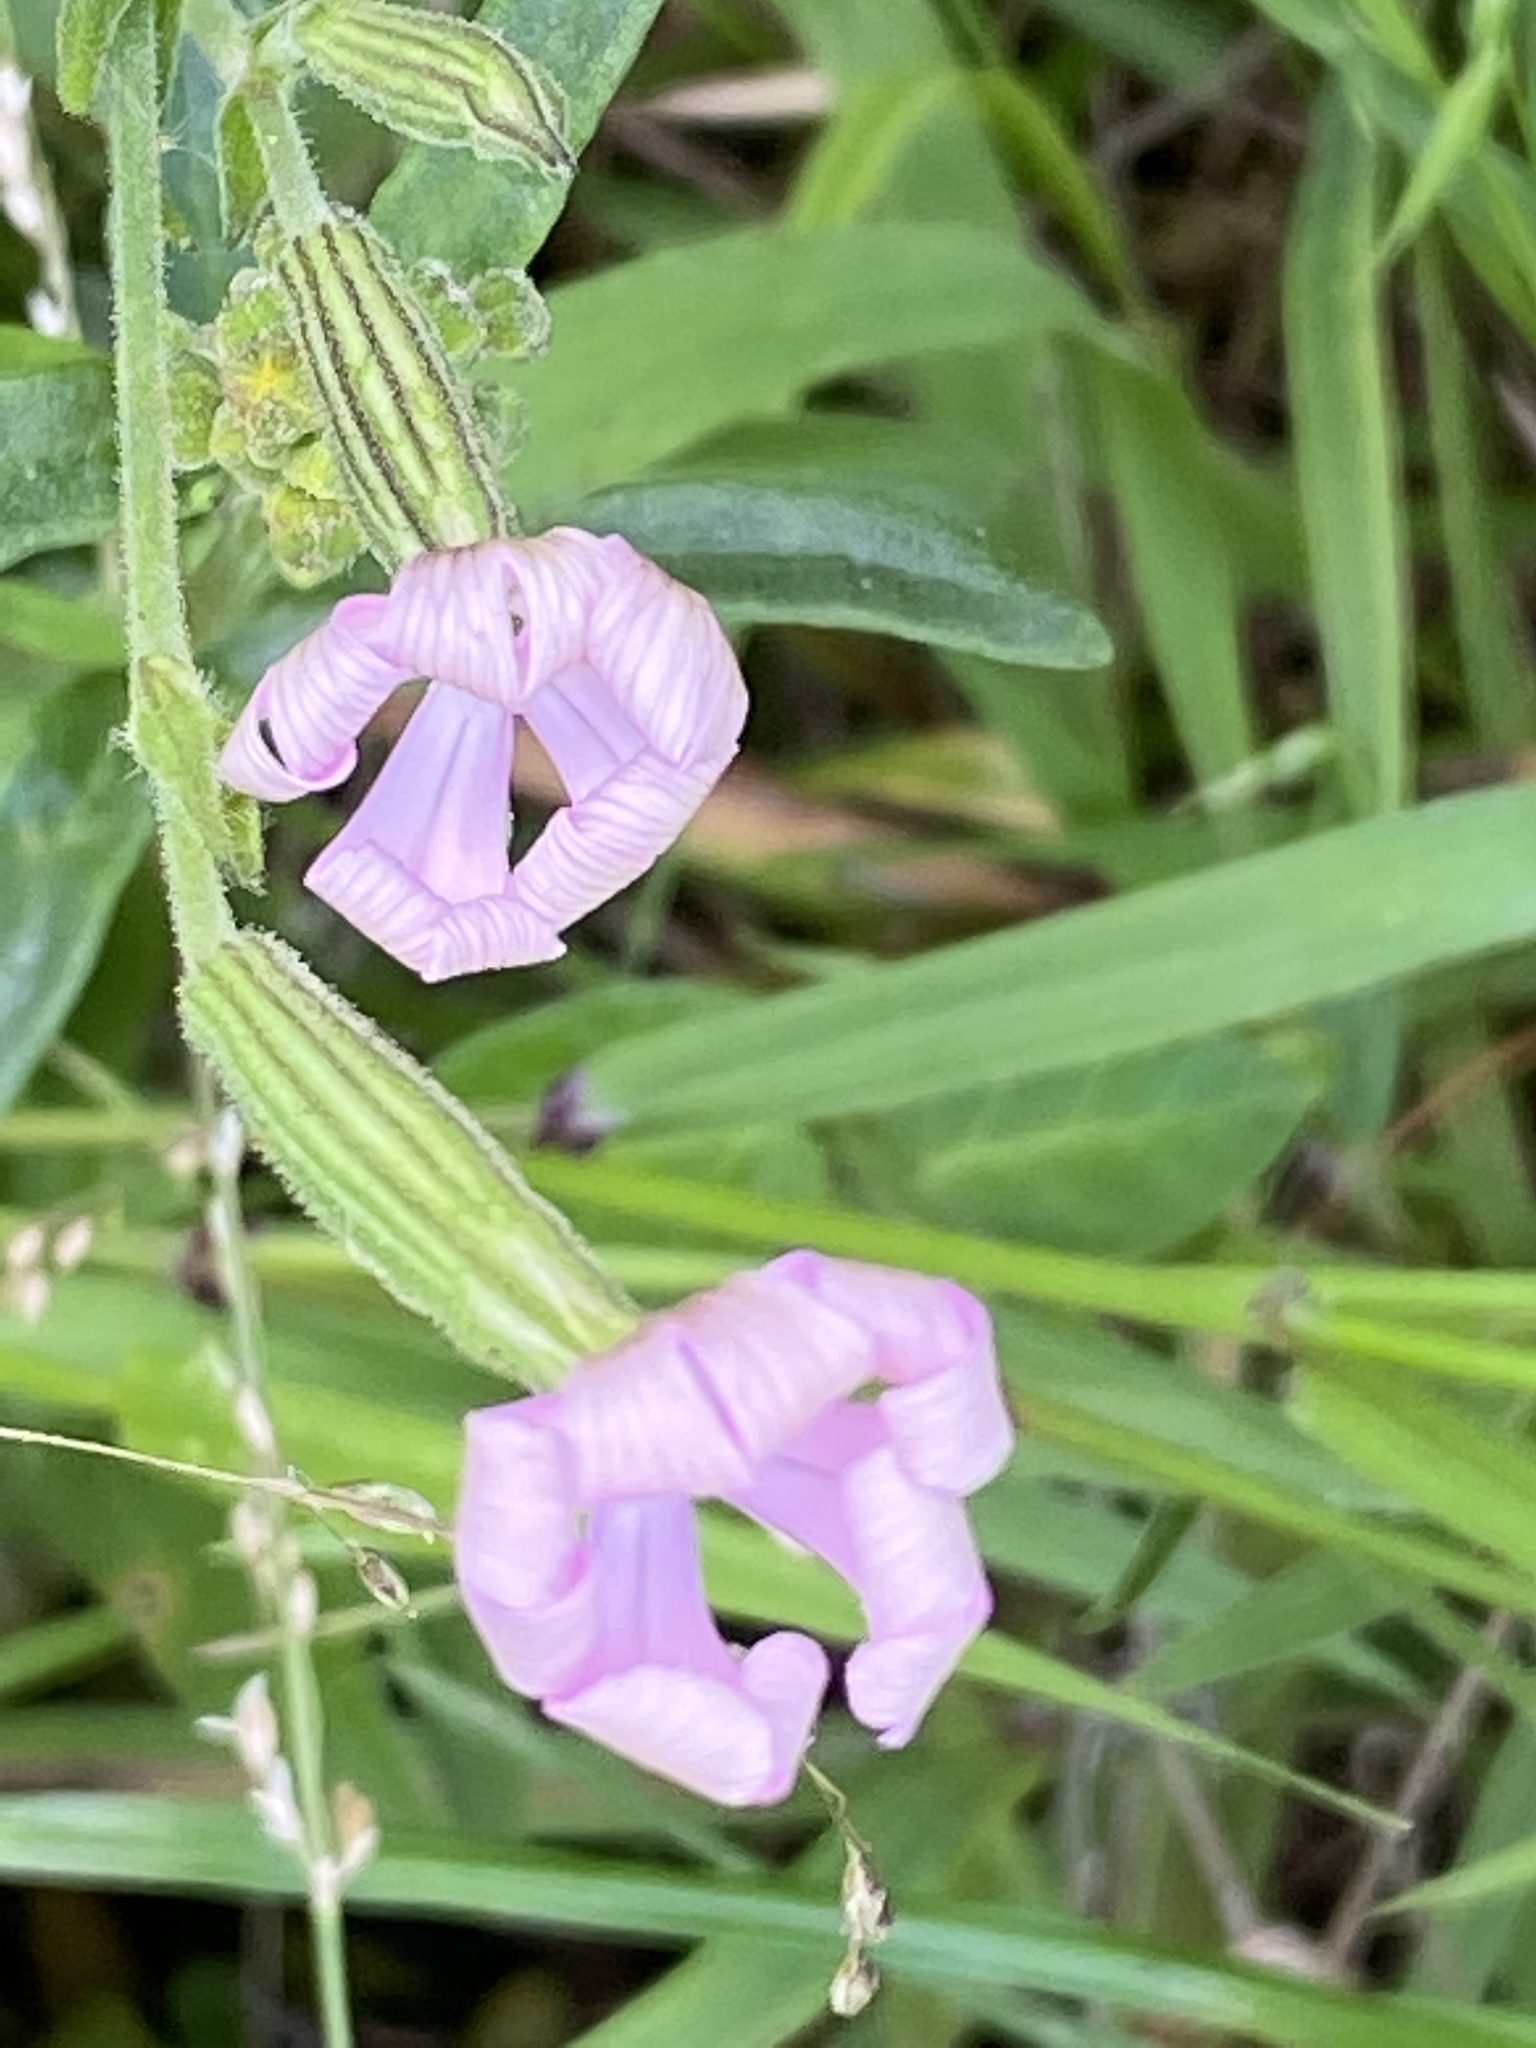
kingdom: Plantae
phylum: Tracheophyta
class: Magnoliopsida
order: Caryophyllales
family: Caryophyllaceae
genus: Silene
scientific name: Silene undulata
